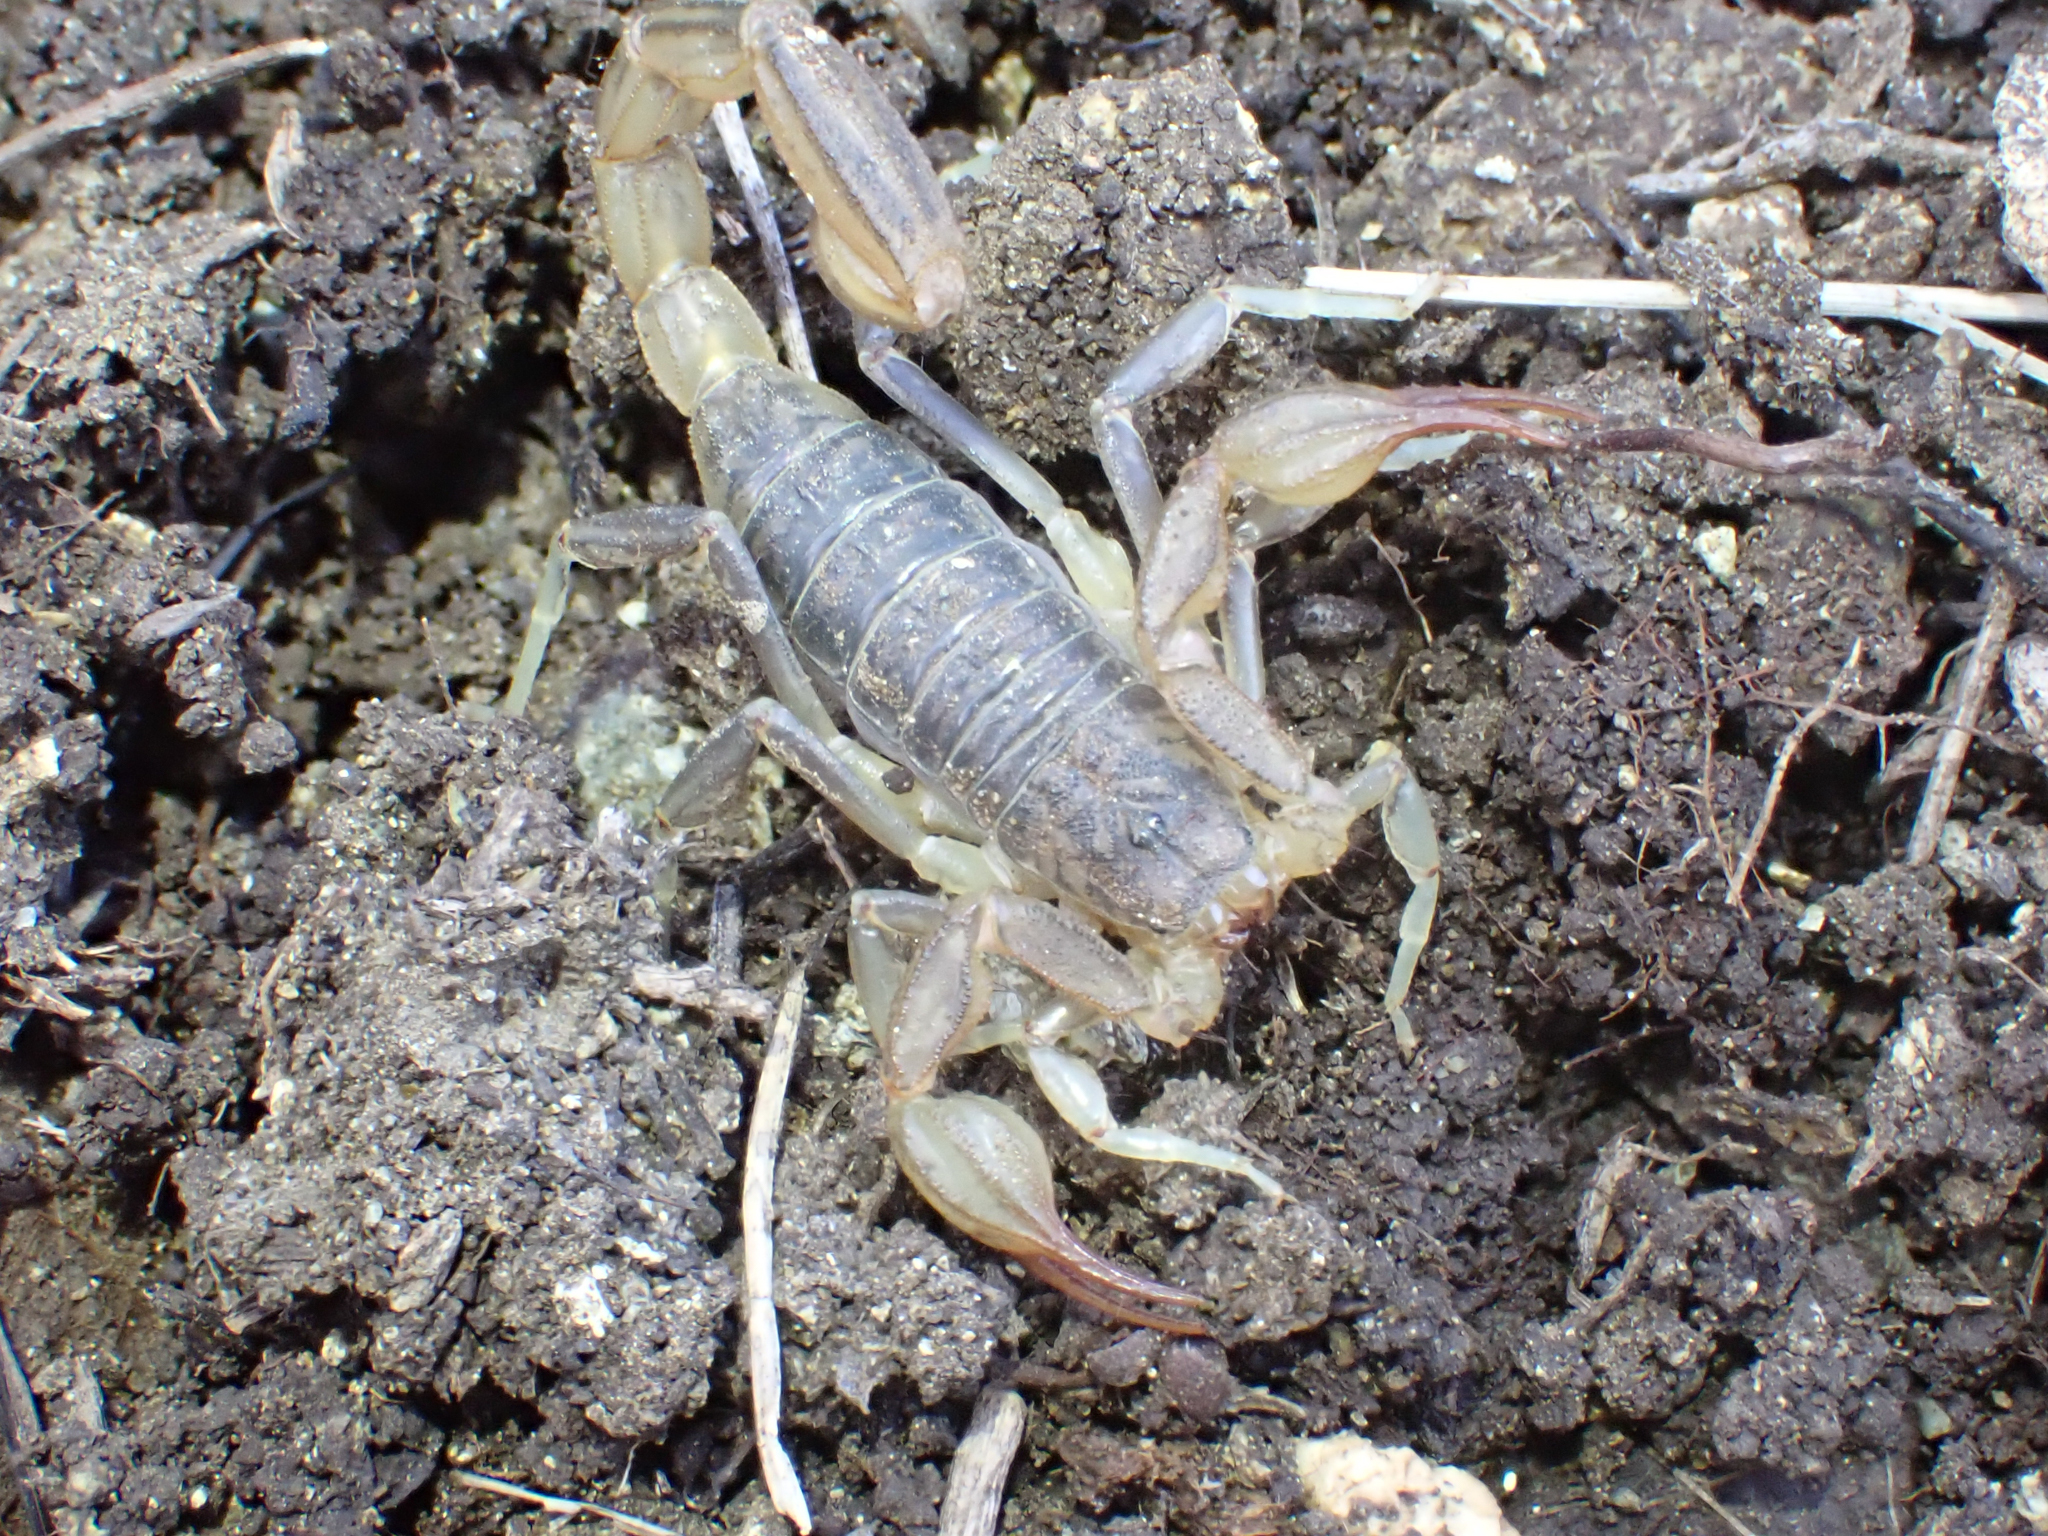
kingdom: Animalia
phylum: Arthropoda
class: Arachnida
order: Scorpiones
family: Vaejovidae
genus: Paruroctonus
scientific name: Paruroctonus silvestrii
